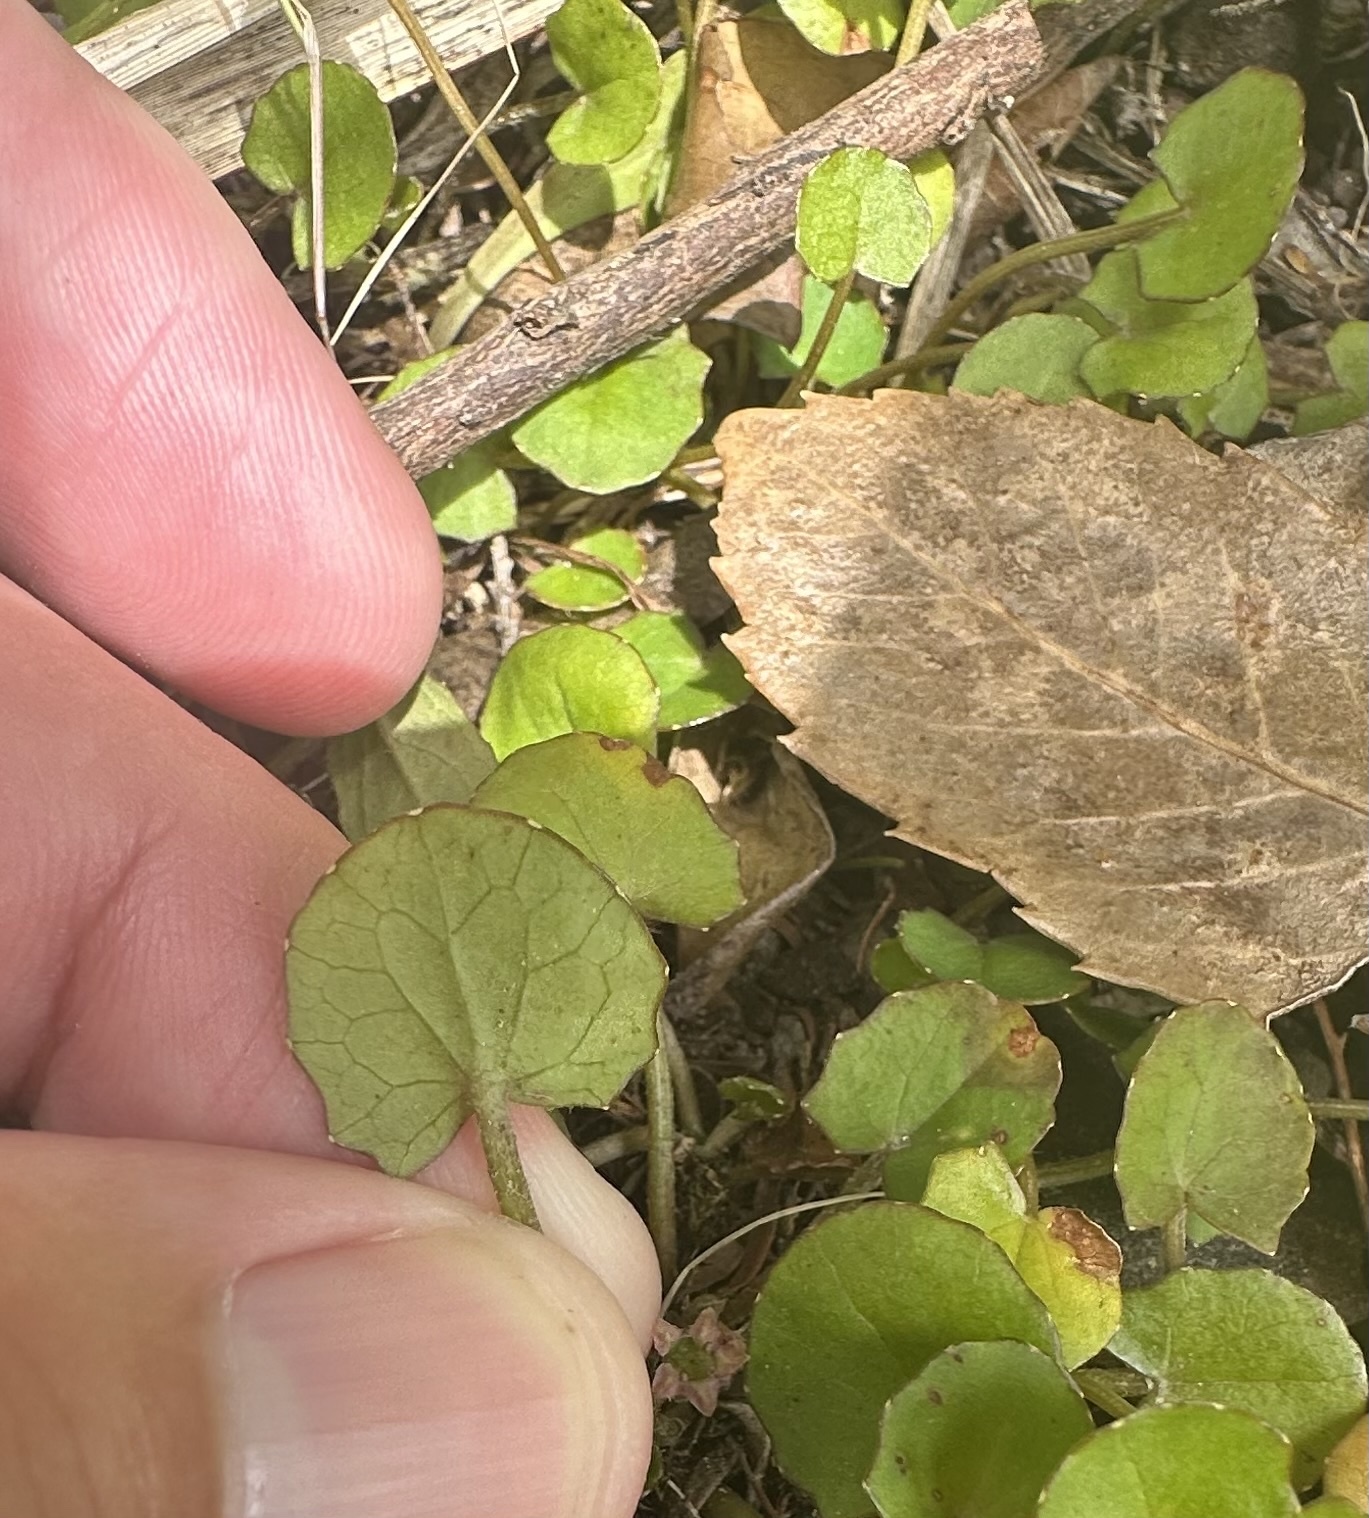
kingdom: Plantae
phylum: Tracheophyta
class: Magnoliopsida
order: Apiales
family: Apiaceae
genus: Centella
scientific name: Centella uniflora
